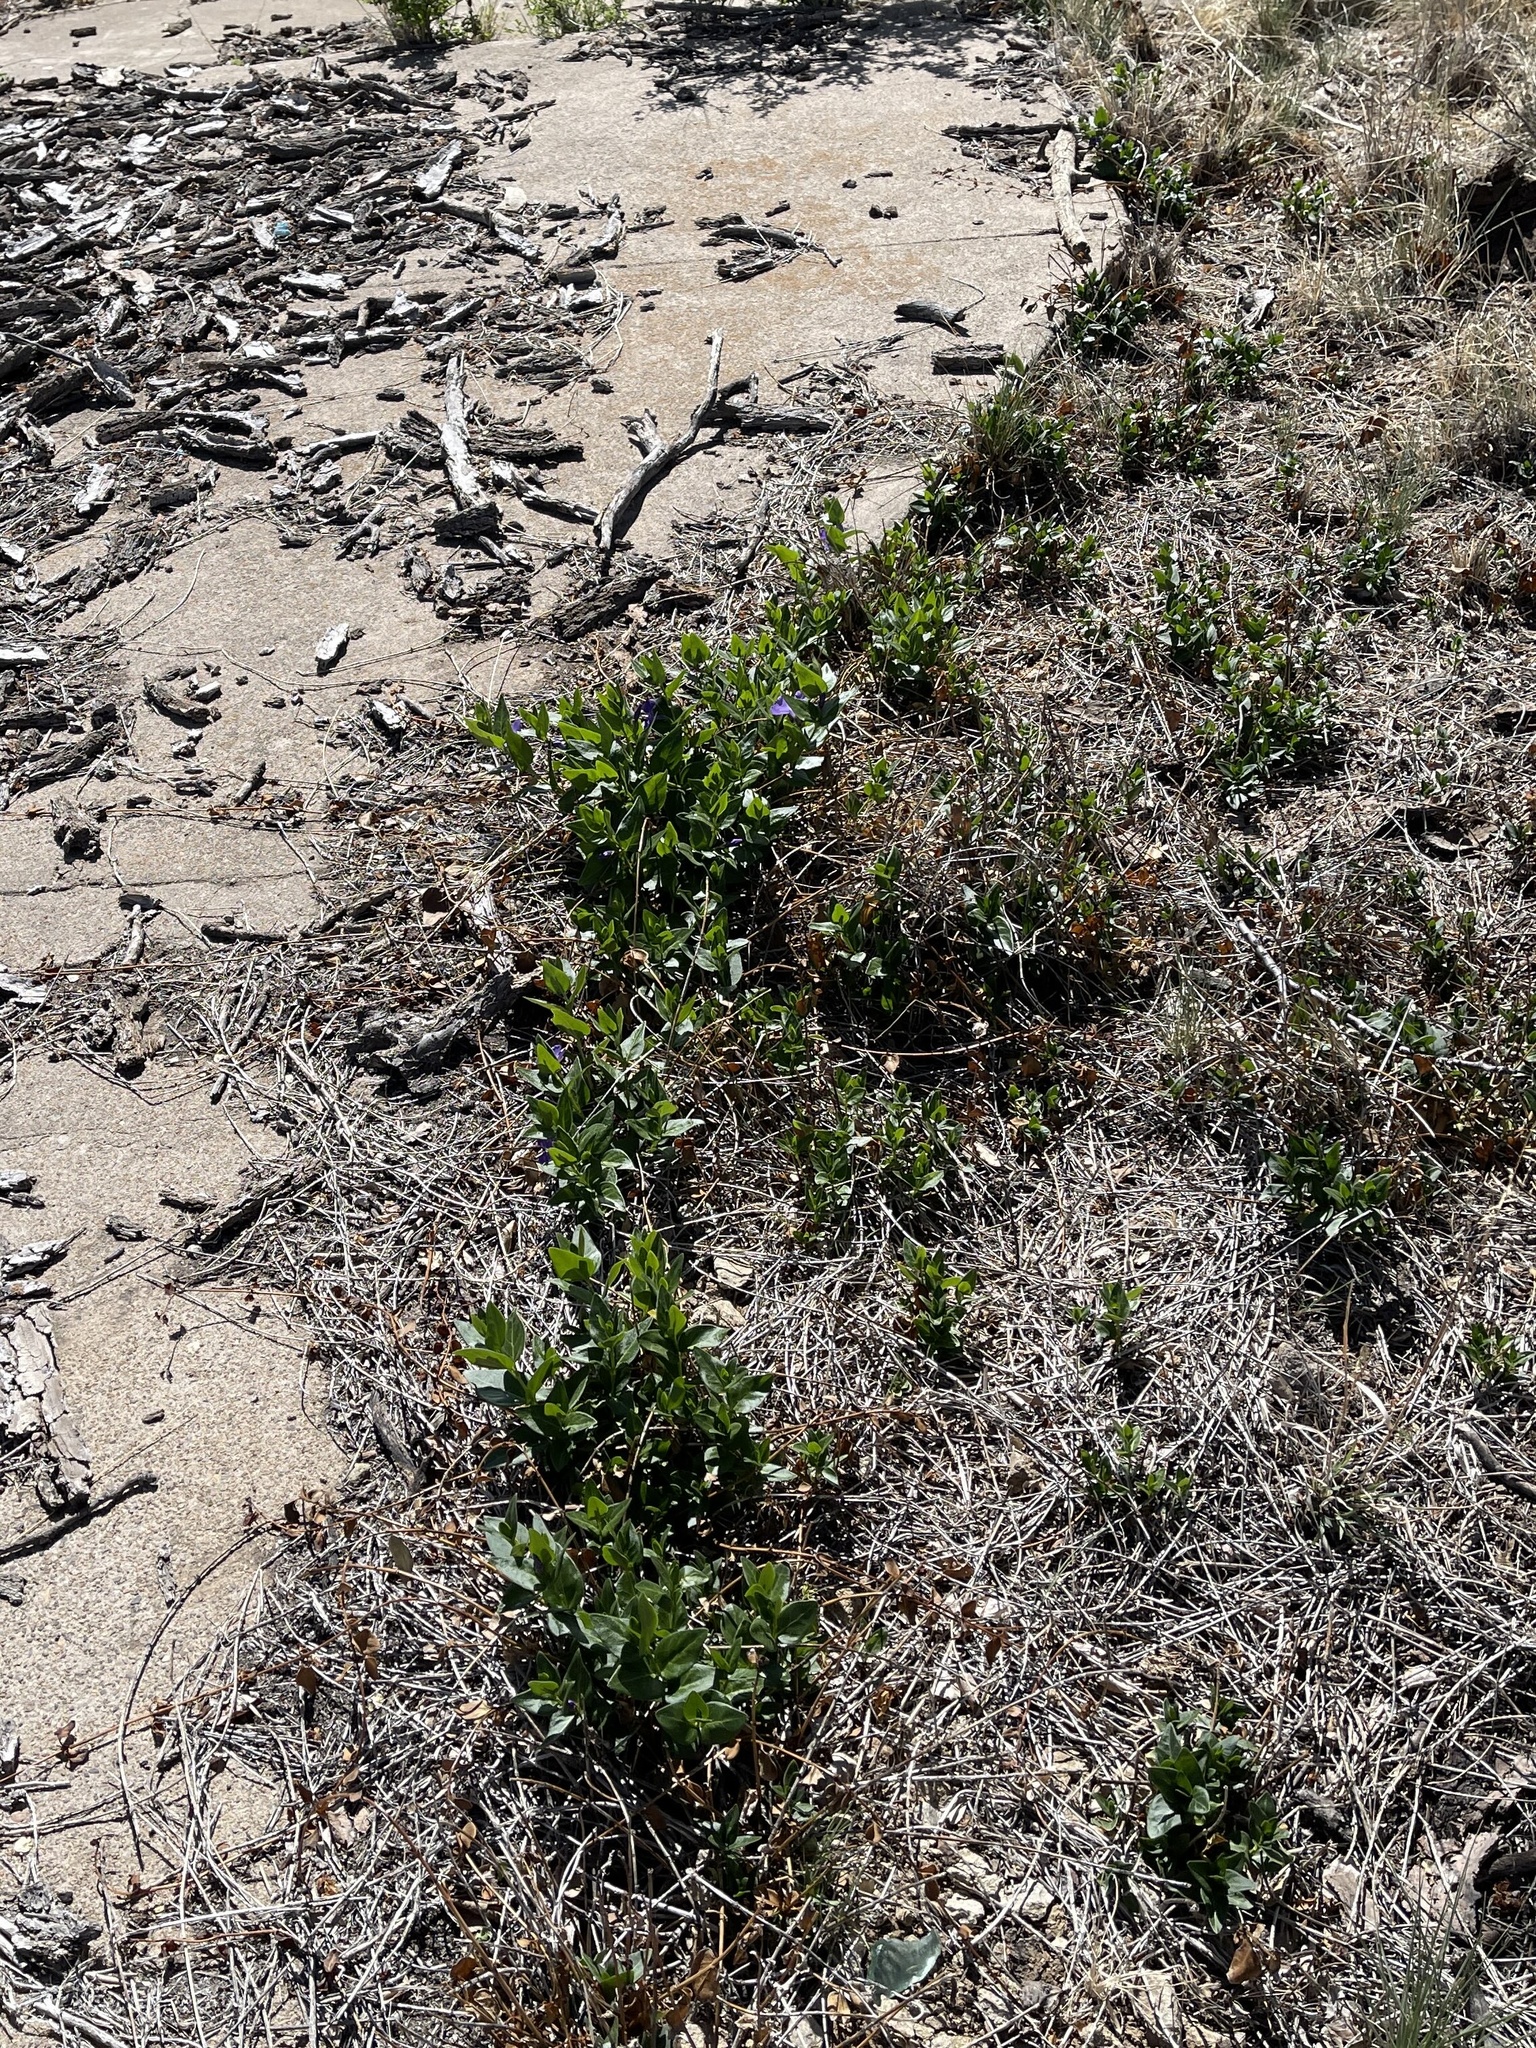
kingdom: Plantae
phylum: Tracheophyta
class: Magnoliopsida
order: Gentianales
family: Apocynaceae
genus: Vinca
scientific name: Vinca major
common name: Greater periwinkle
